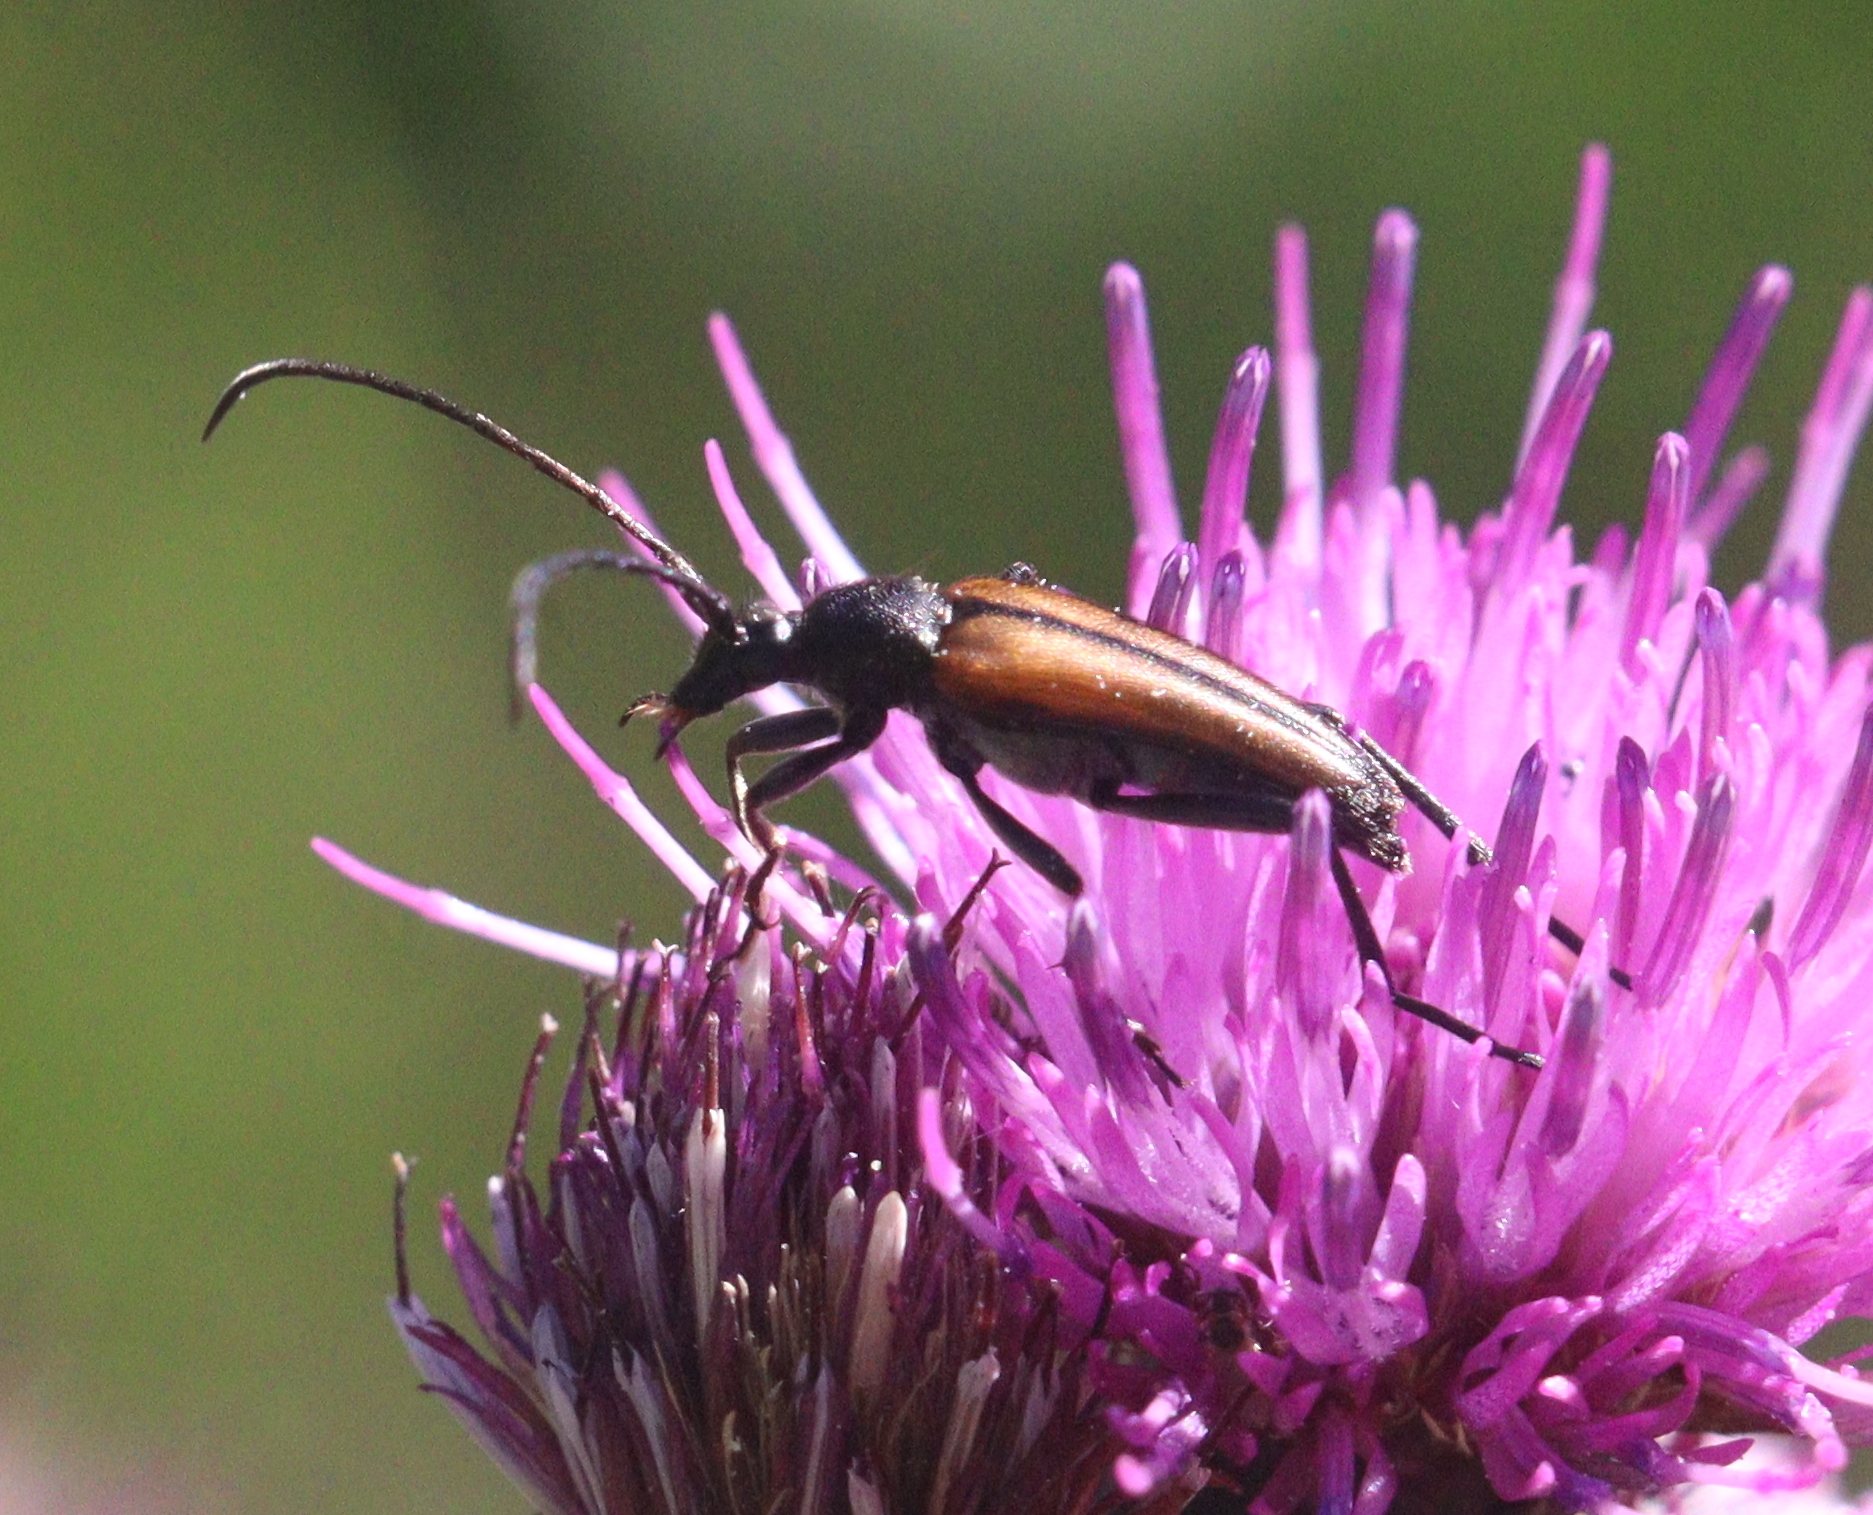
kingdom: Animalia
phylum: Arthropoda
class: Insecta
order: Coleoptera
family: Cerambycidae
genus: Stenurella
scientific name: Stenurella melanura
